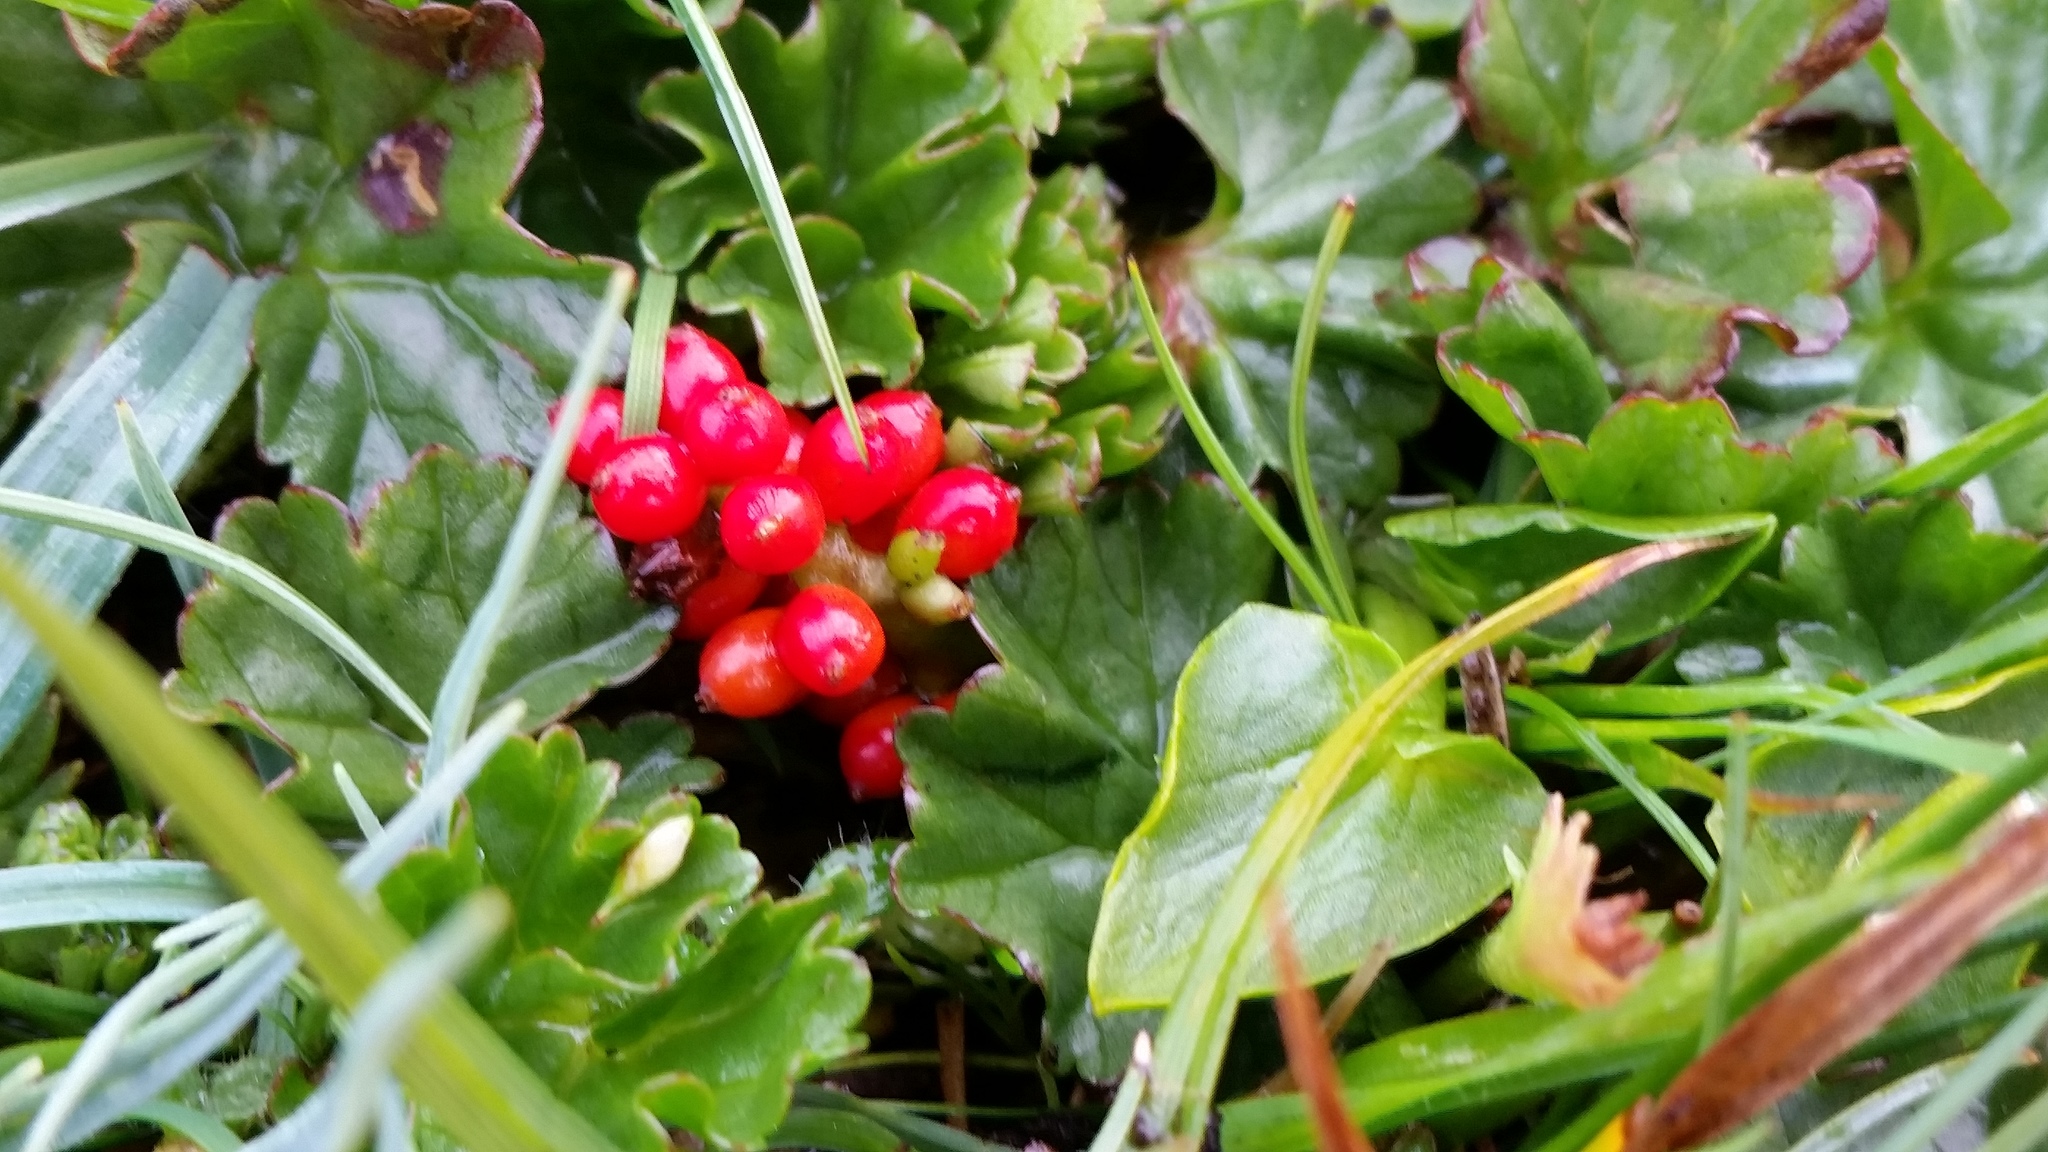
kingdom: Plantae
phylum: Tracheophyta
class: Magnoliopsida
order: Gunnerales
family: Gunneraceae
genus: Gunnera
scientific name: Gunnera magellanica
